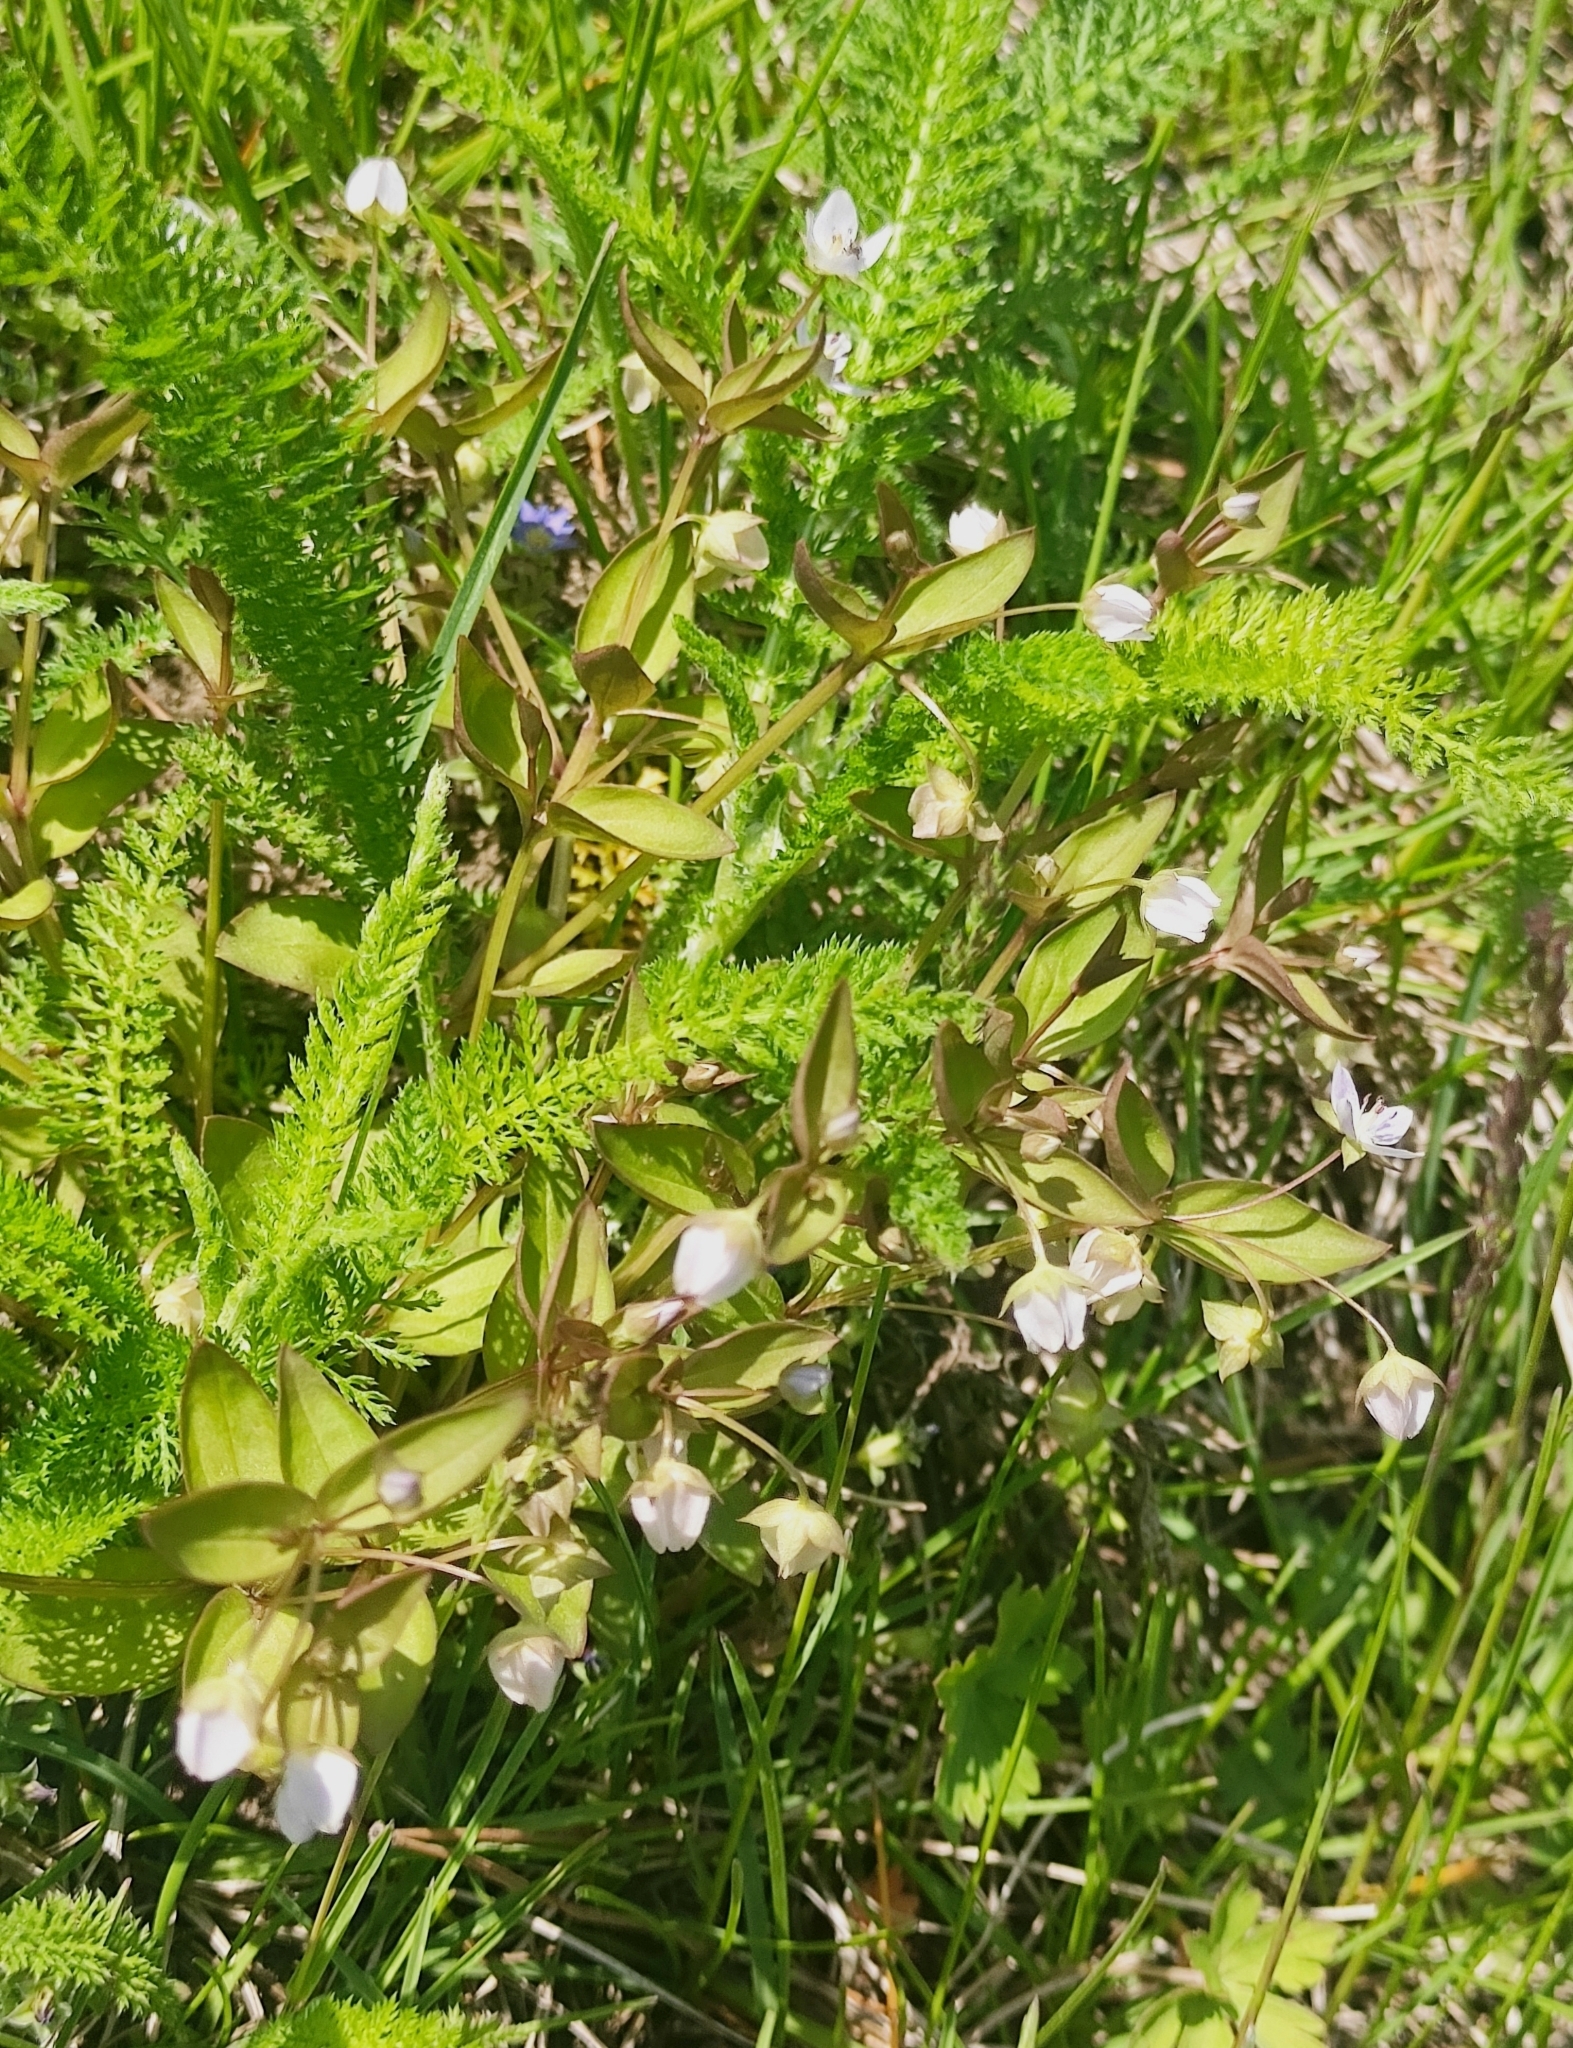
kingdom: Plantae
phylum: Tracheophyta
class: Magnoliopsida
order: Gentianales
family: Gentianaceae
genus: Swertia
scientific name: Swertia dichotoma
